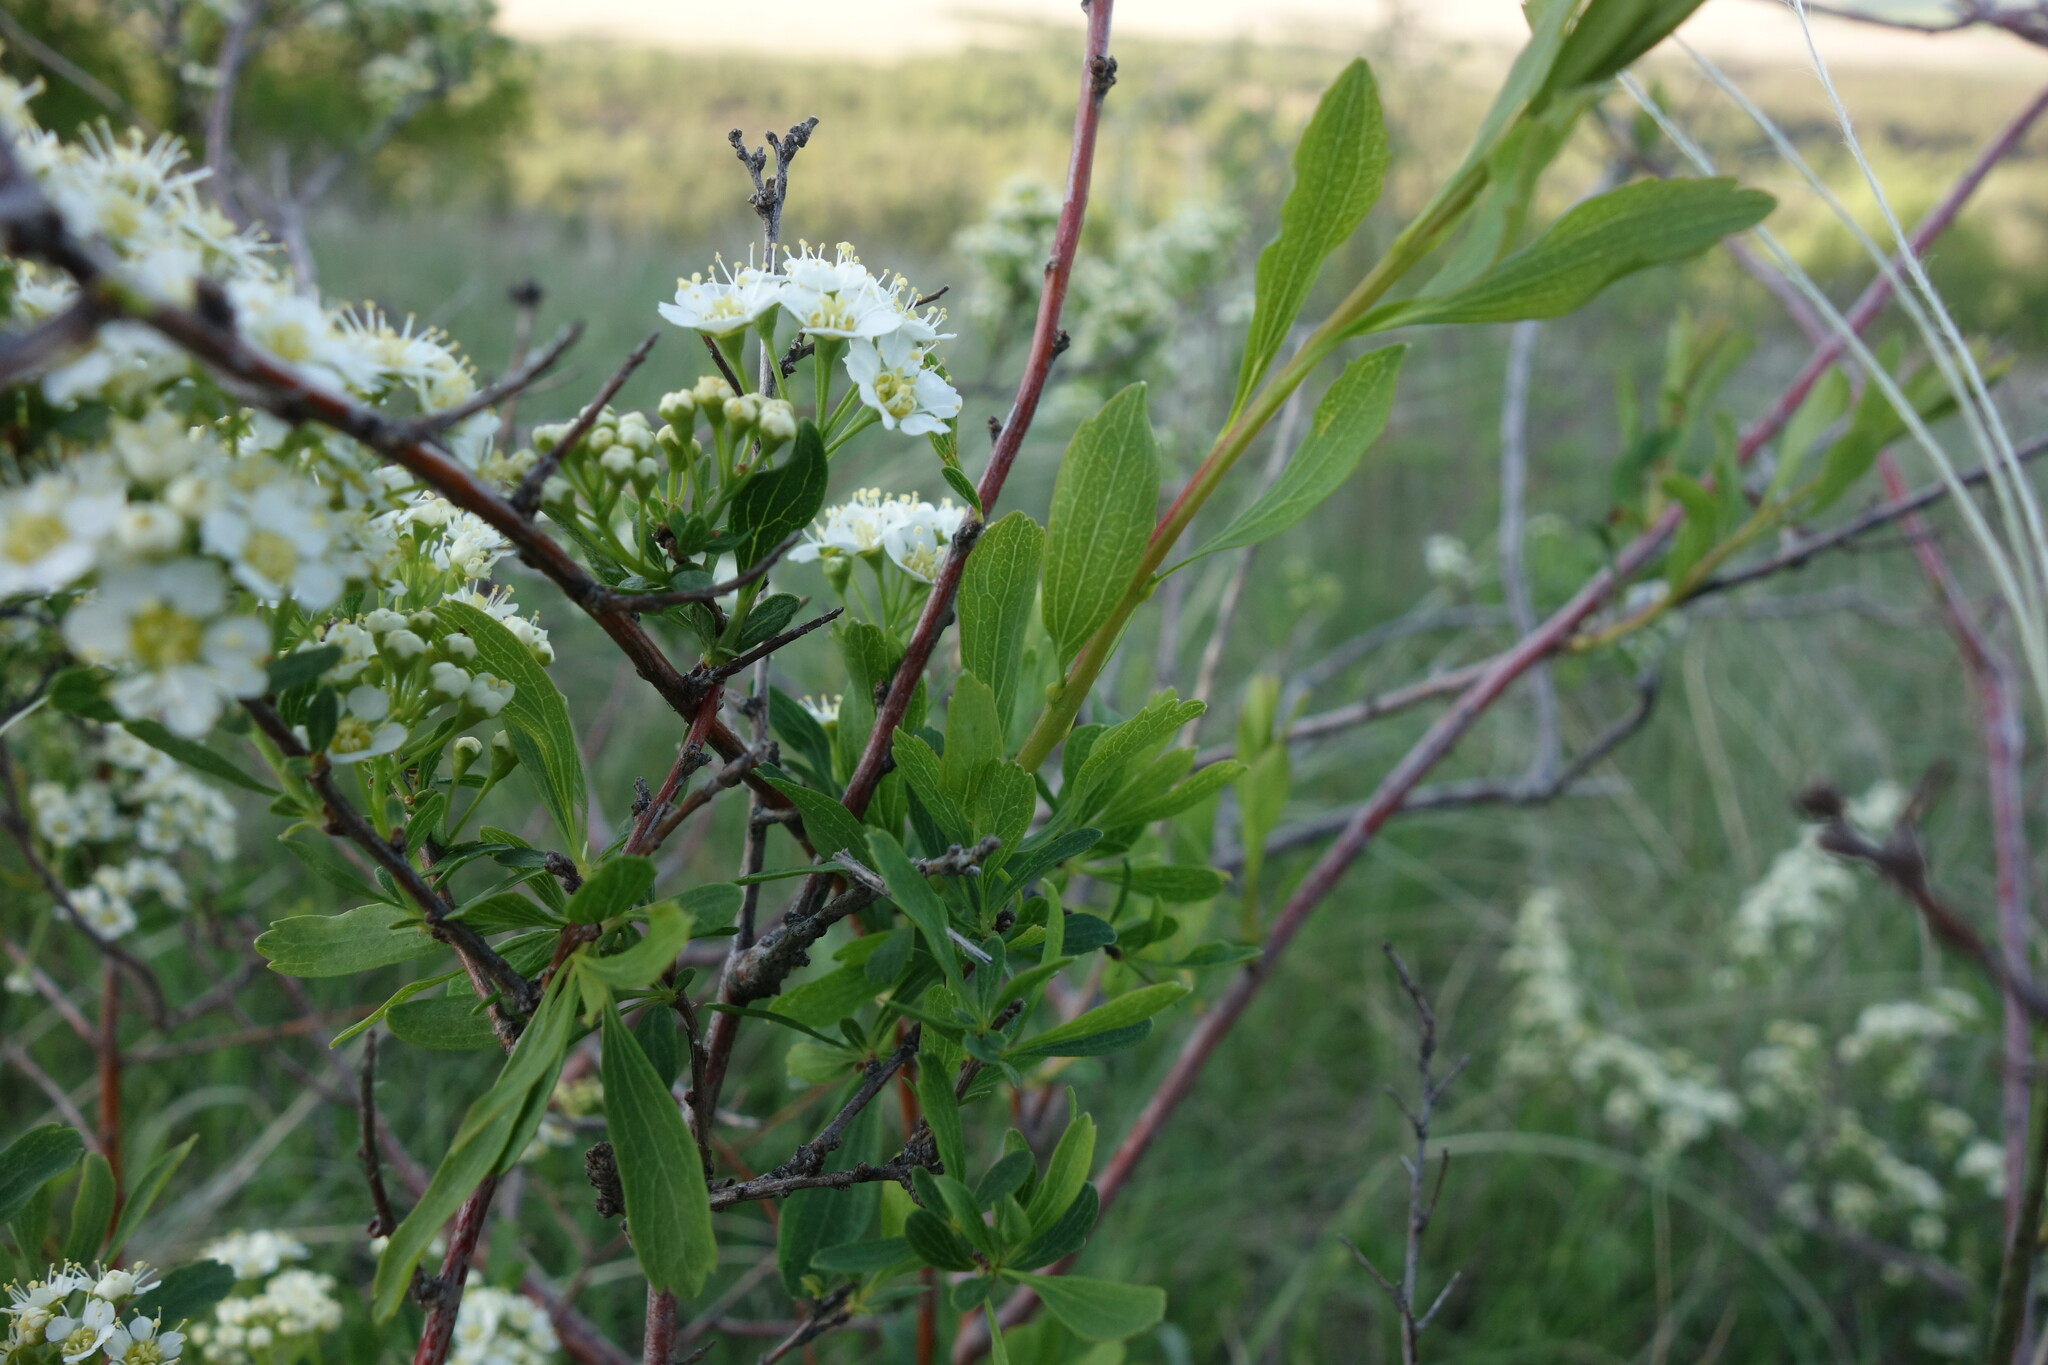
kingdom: Plantae
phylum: Tracheophyta
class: Magnoliopsida
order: Rosales
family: Rosaceae
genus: Spiraea
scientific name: Spiraea crenata
